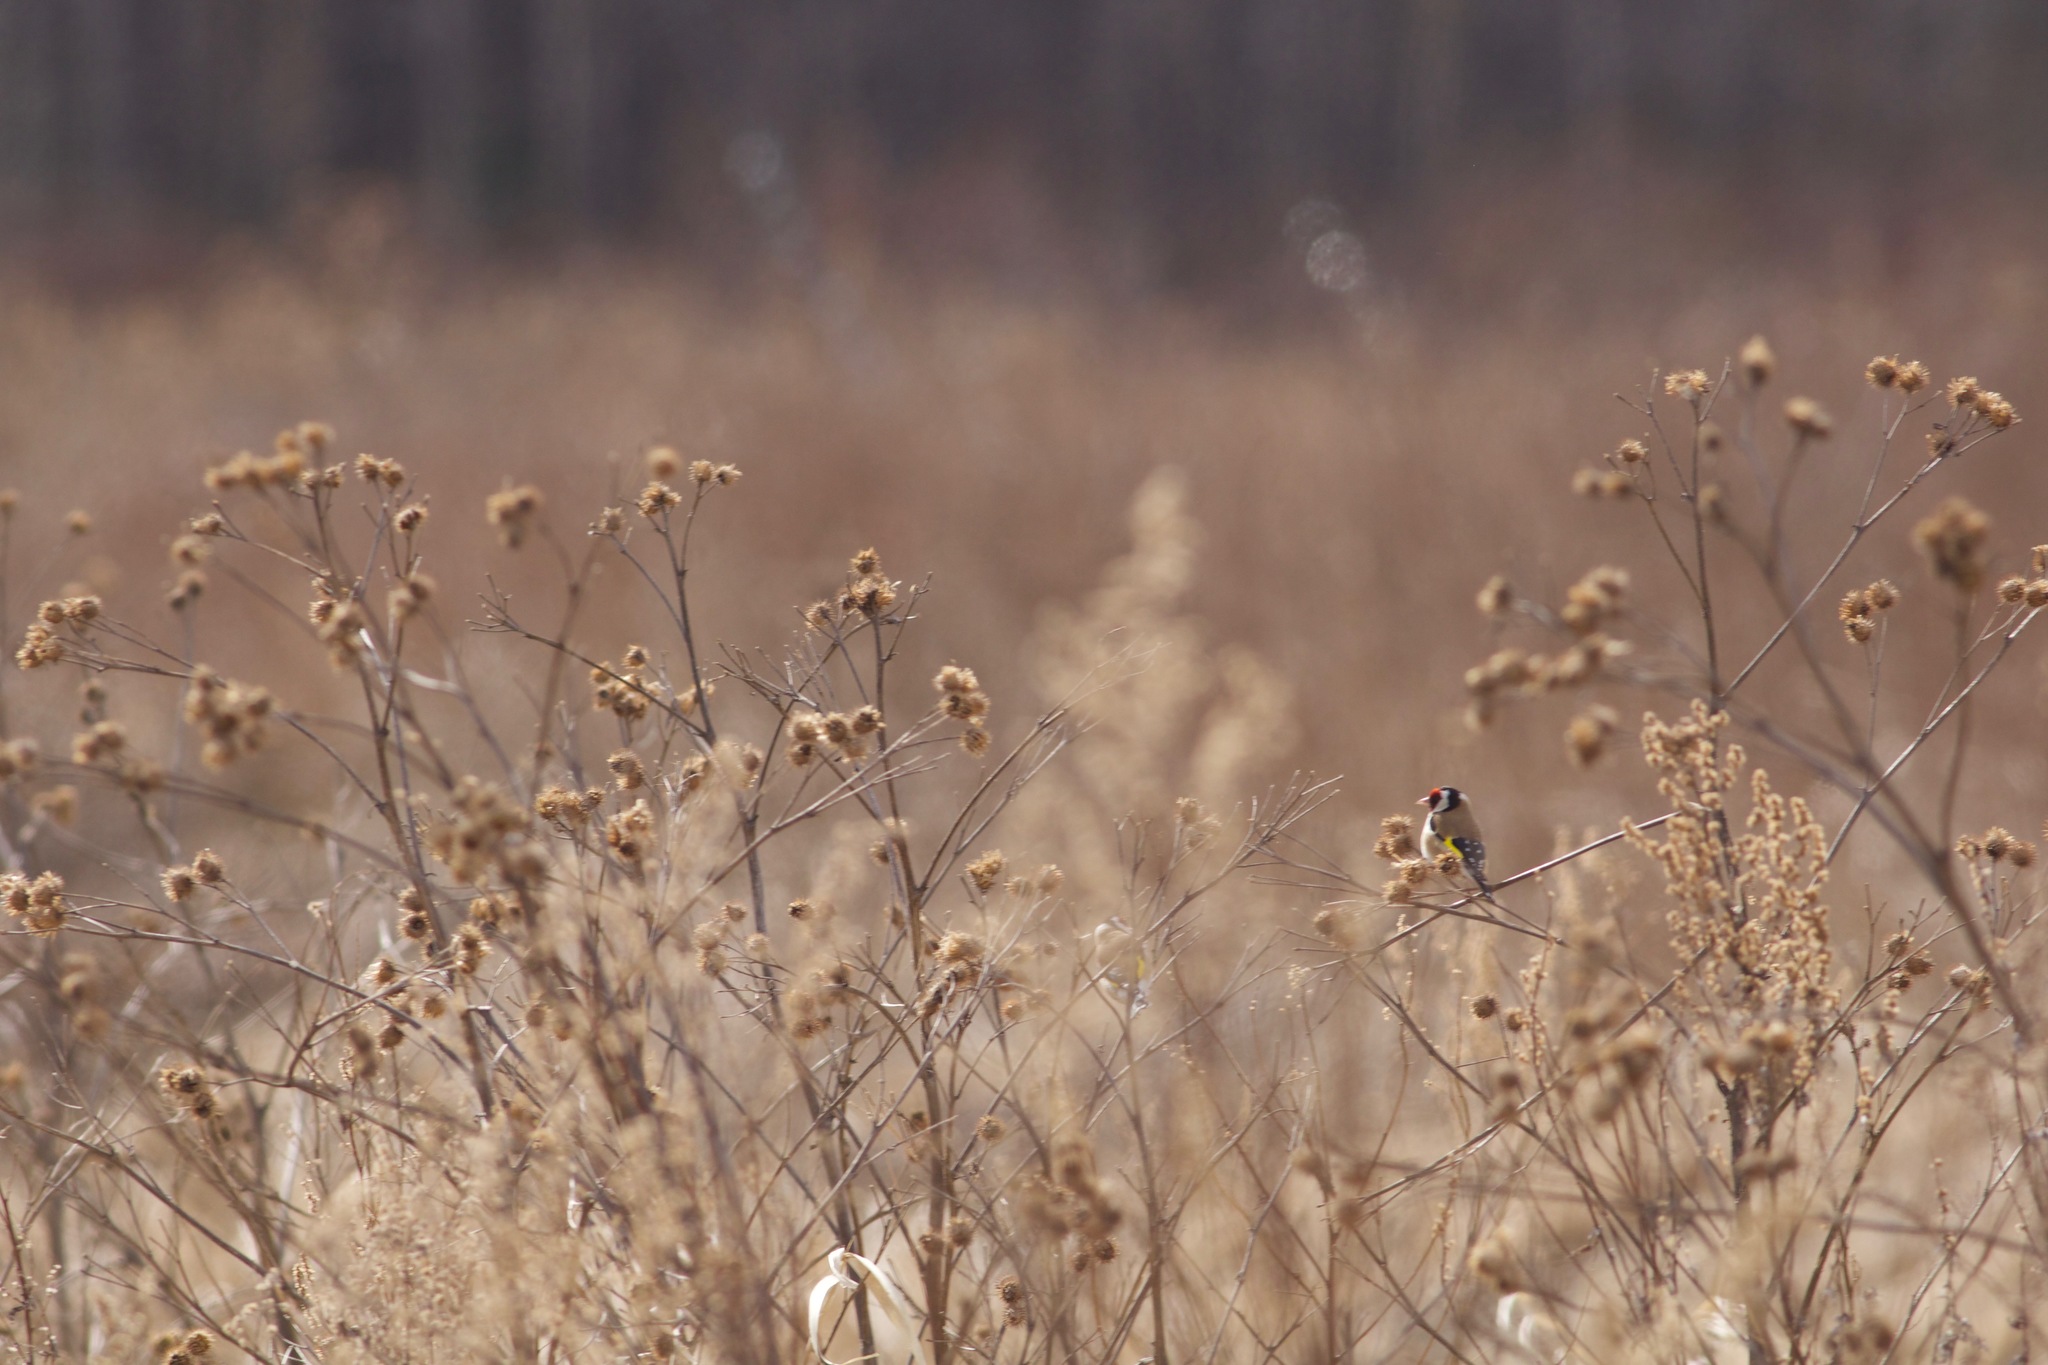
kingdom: Animalia
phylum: Chordata
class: Aves
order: Passeriformes
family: Fringillidae
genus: Carduelis
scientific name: Carduelis carduelis
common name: European goldfinch
